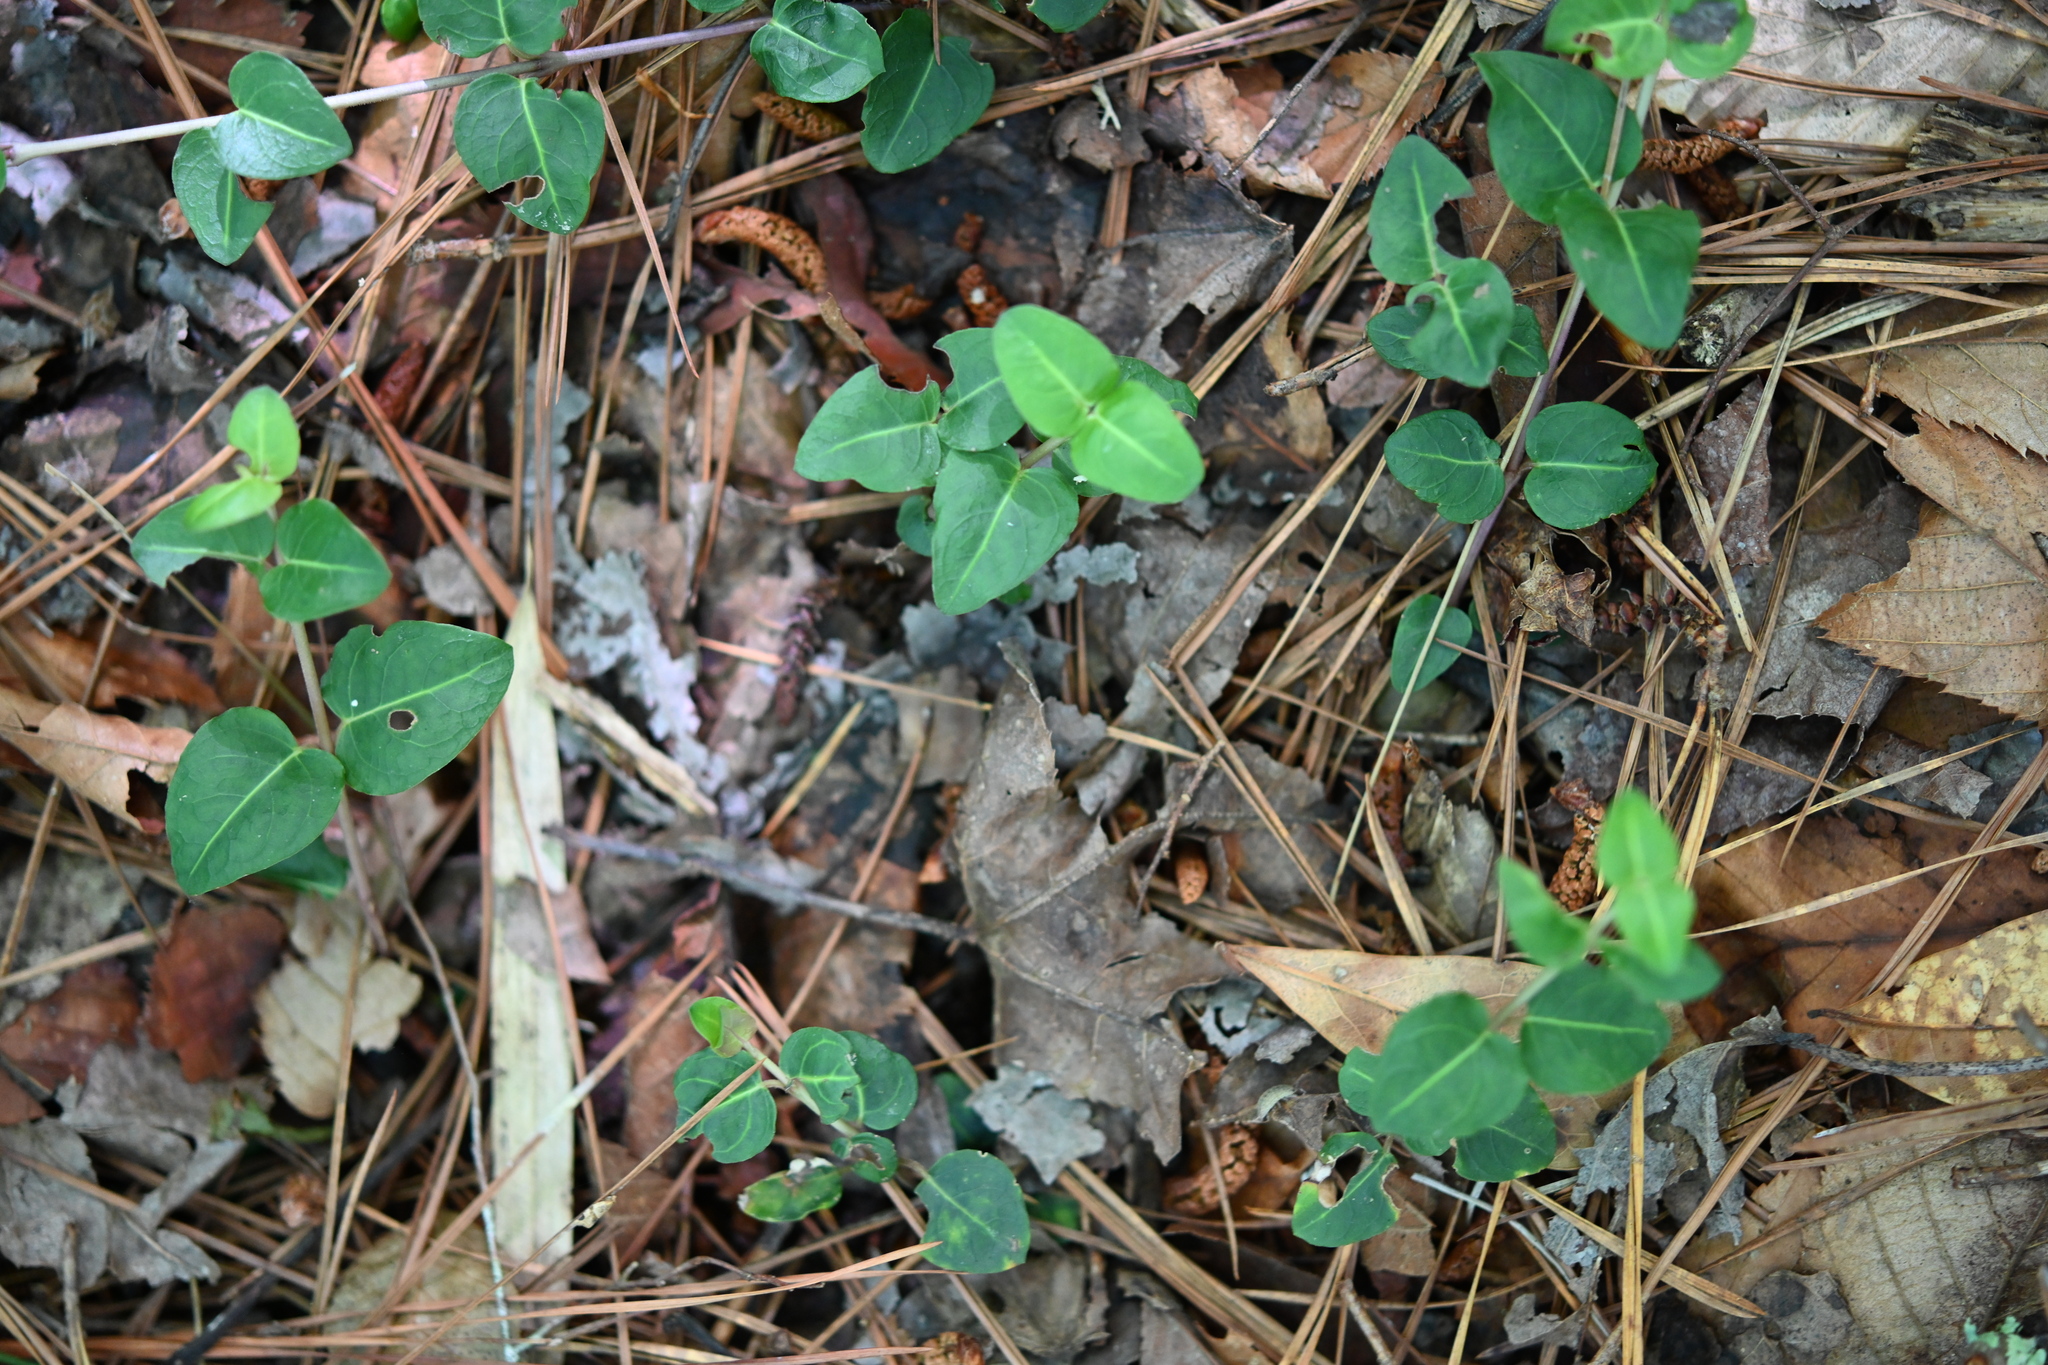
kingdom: Plantae
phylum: Tracheophyta
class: Magnoliopsida
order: Gentianales
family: Rubiaceae
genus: Mitchella
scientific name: Mitchella repens
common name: Partridge-berry
